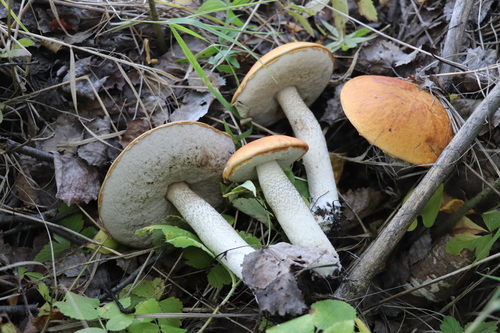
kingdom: Fungi
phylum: Basidiomycota
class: Agaricomycetes
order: Boletales
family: Boletaceae
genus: Leccinum
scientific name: Leccinum
